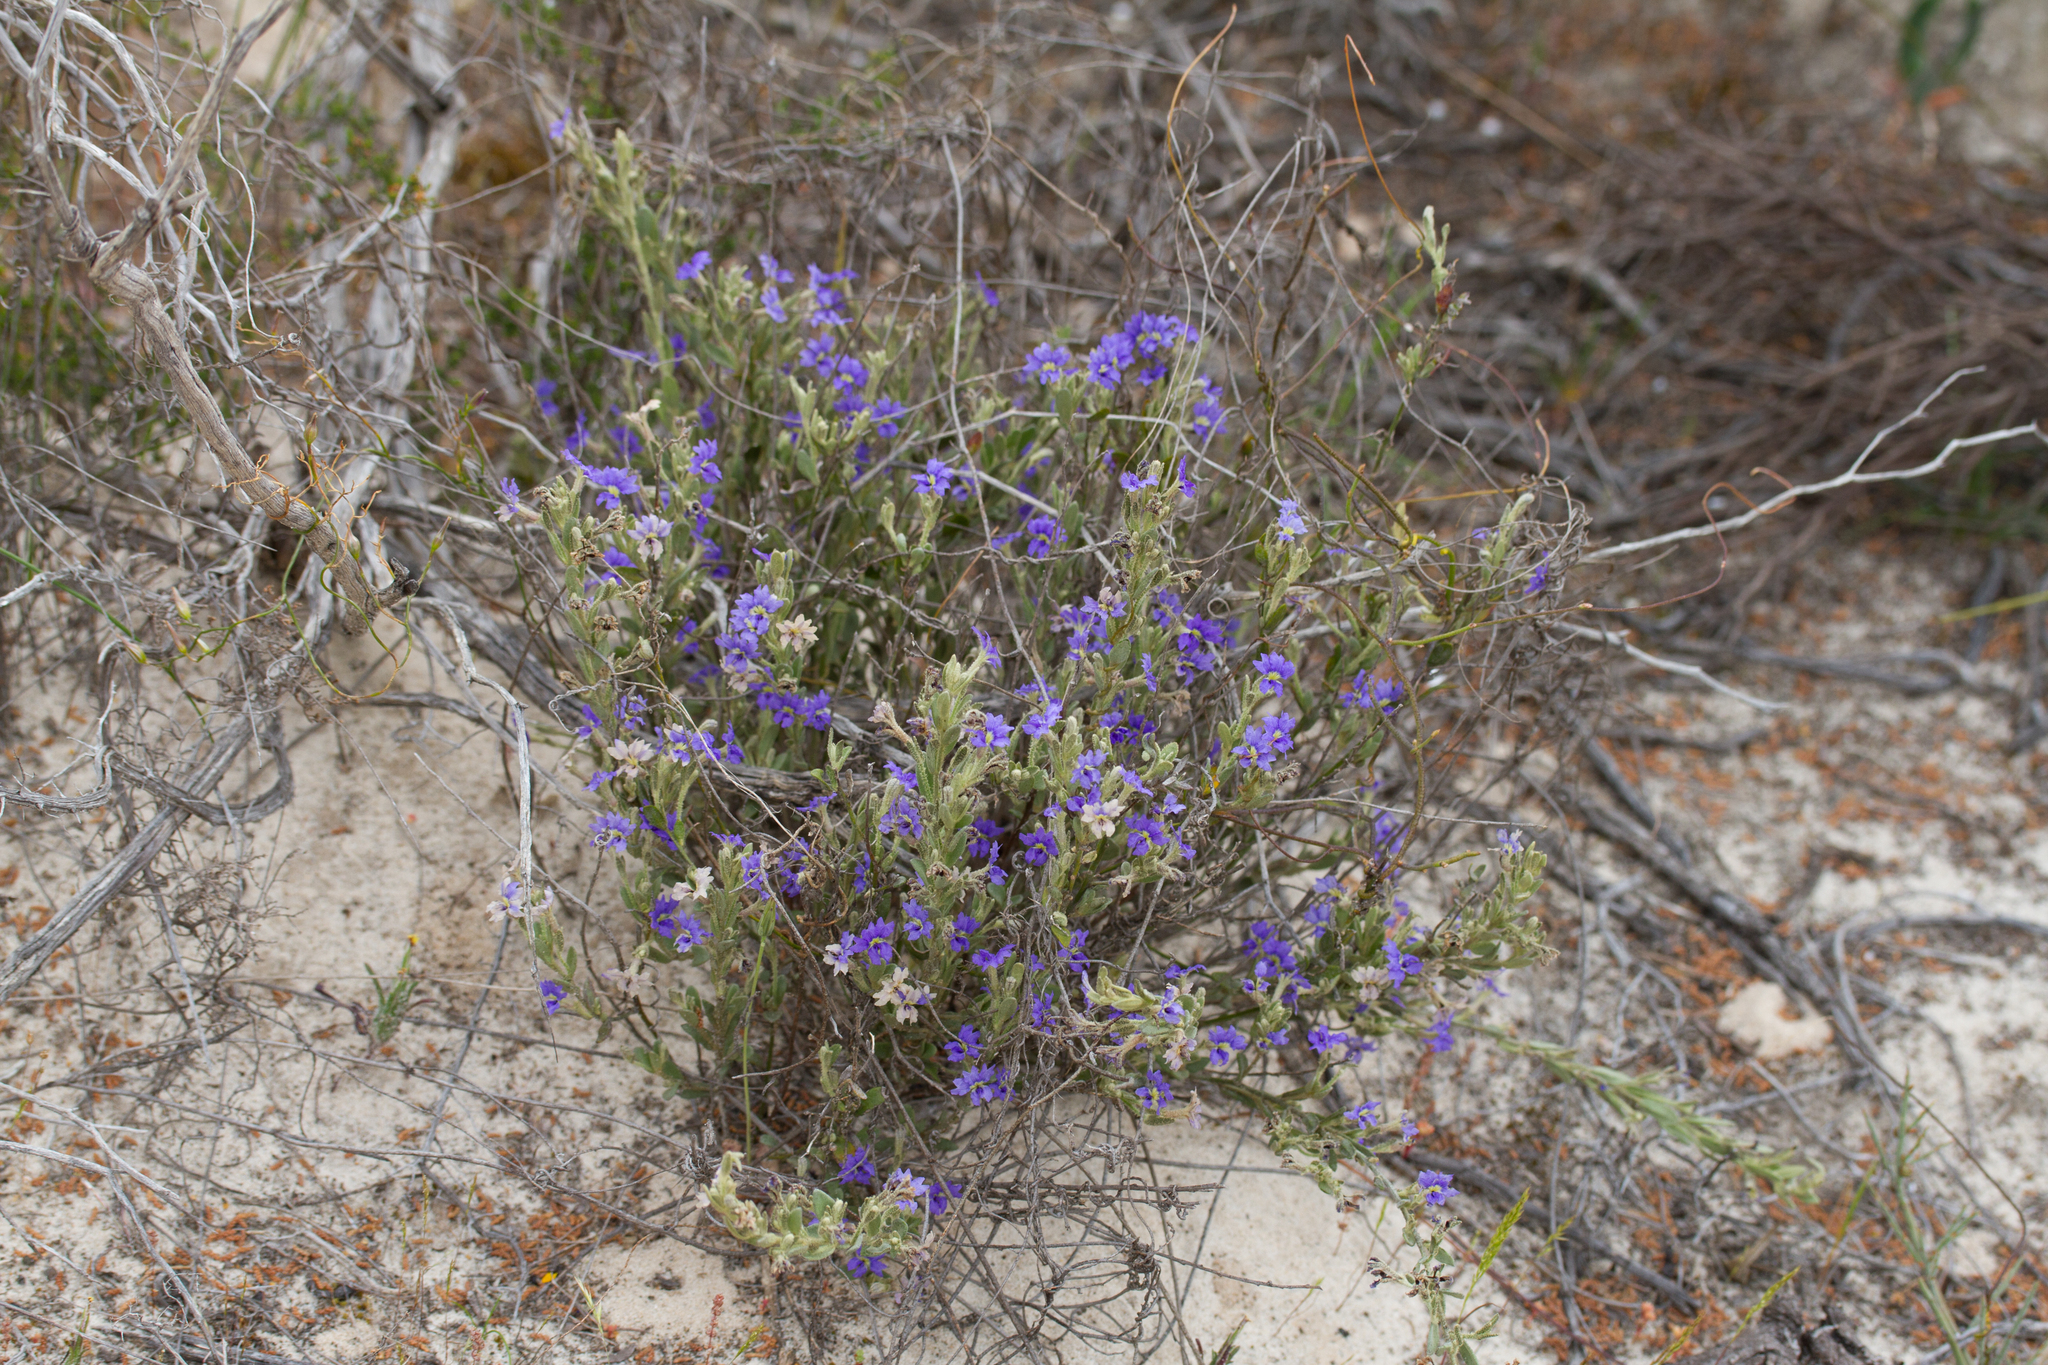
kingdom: Plantae
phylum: Tracheophyta
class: Magnoliopsida
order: Asterales
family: Goodeniaceae
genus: Dampiera
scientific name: Dampiera marifolia
